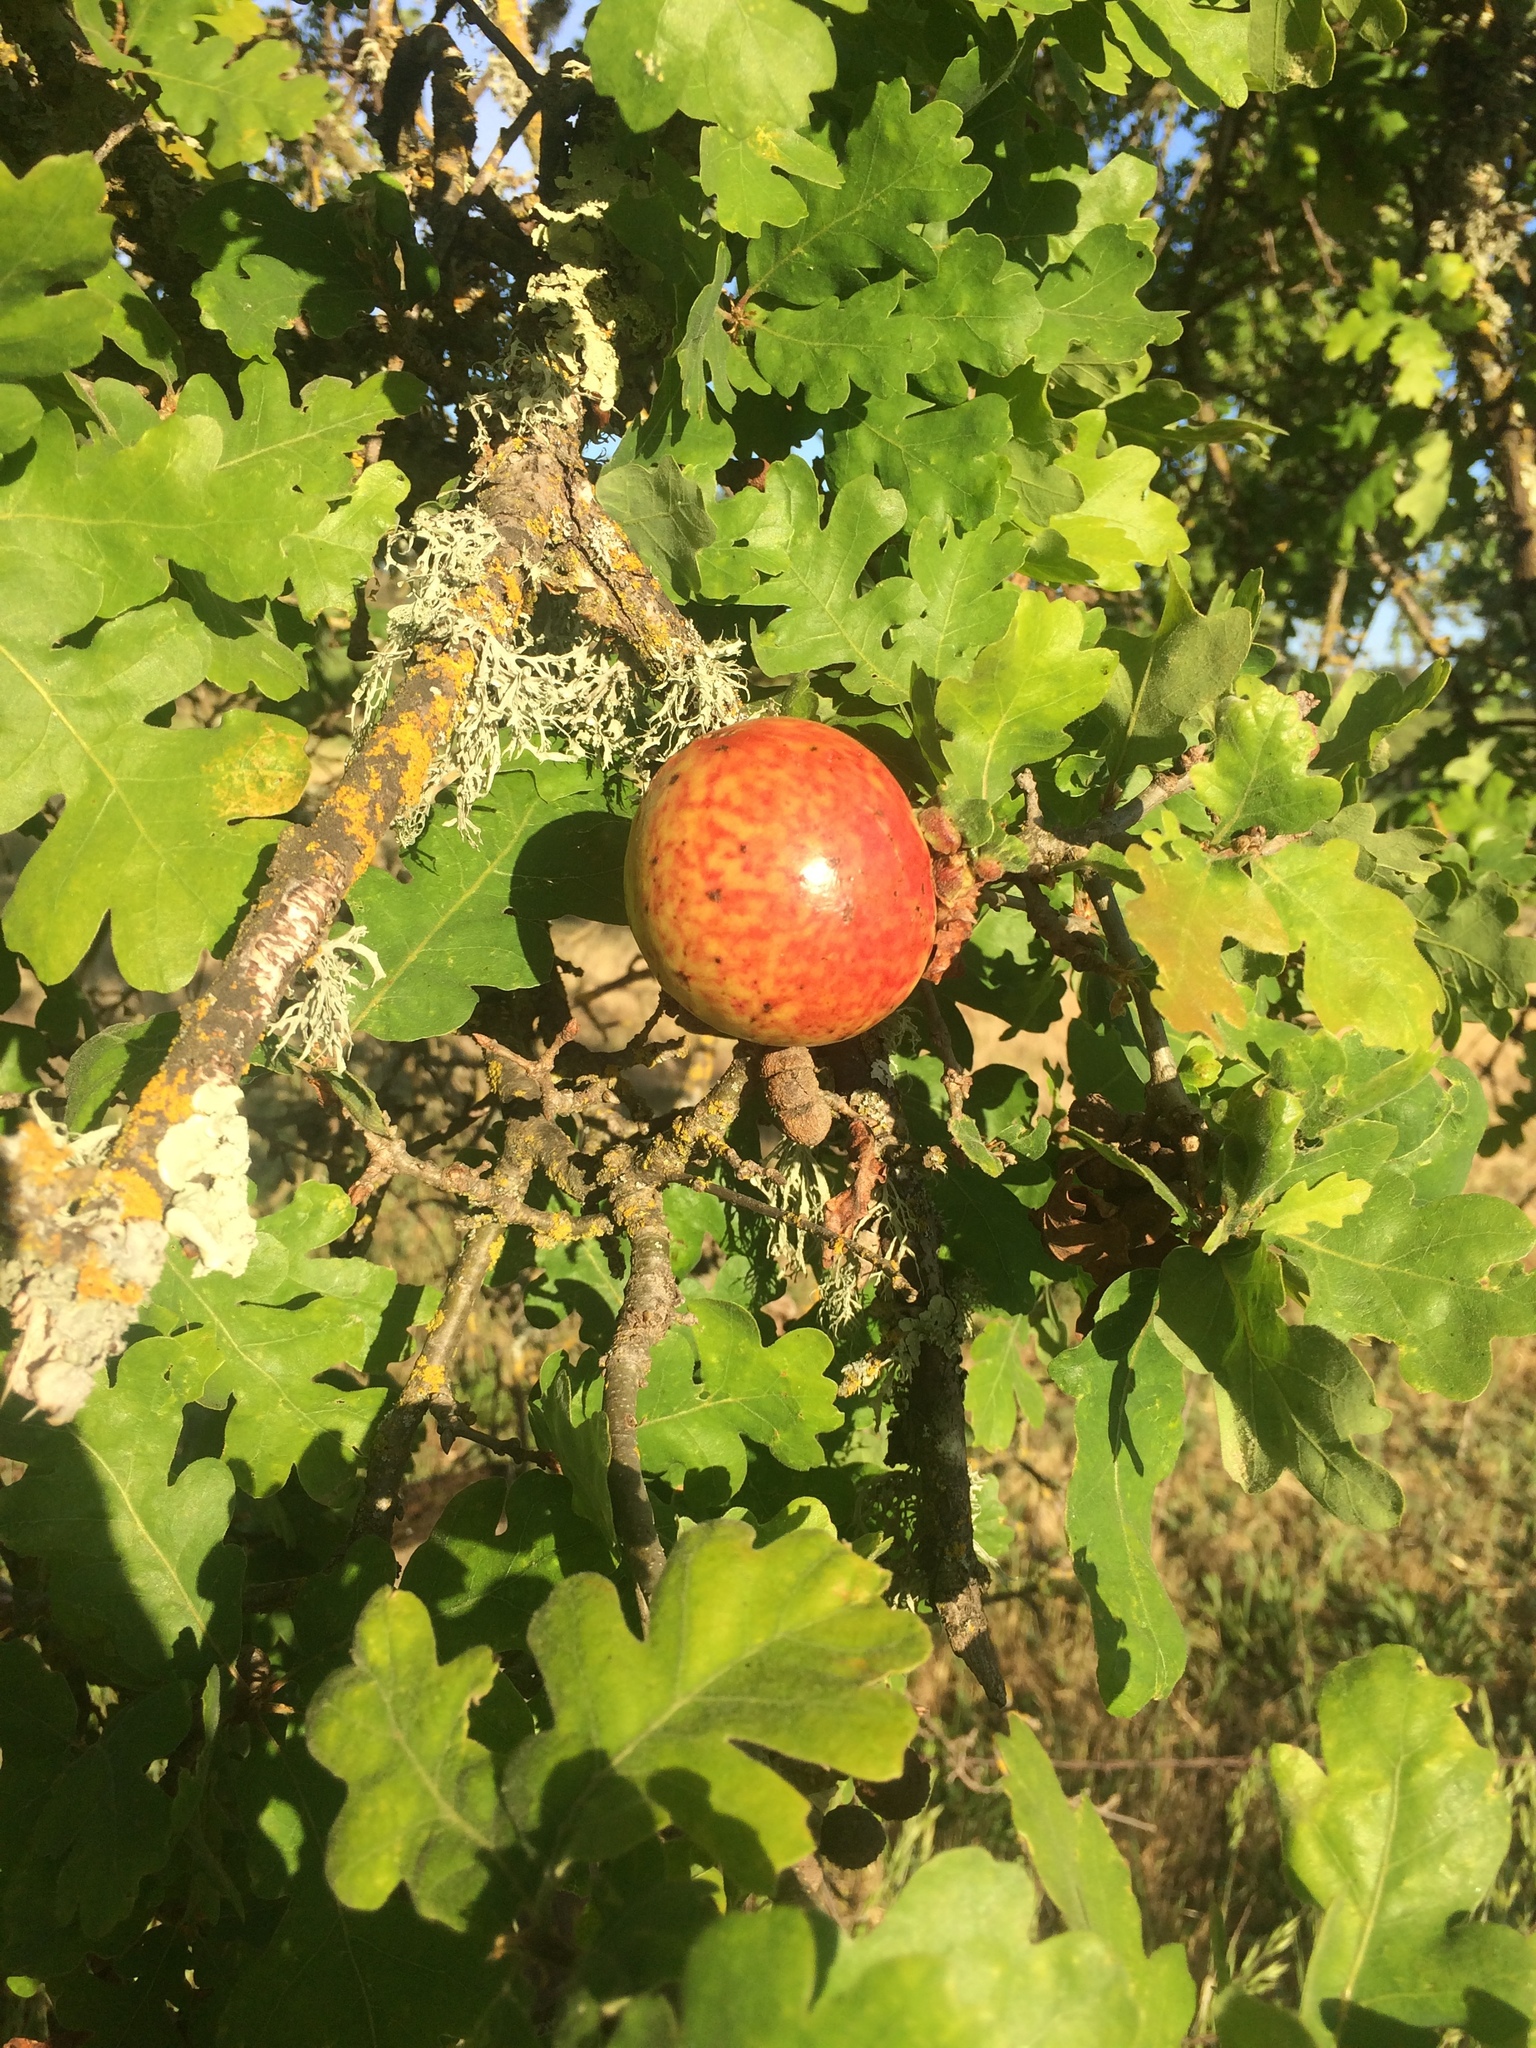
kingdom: Animalia
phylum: Arthropoda
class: Insecta
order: Hymenoptera
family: Cynipidae
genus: Andricus
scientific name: Andricus quercuscalifornicus
